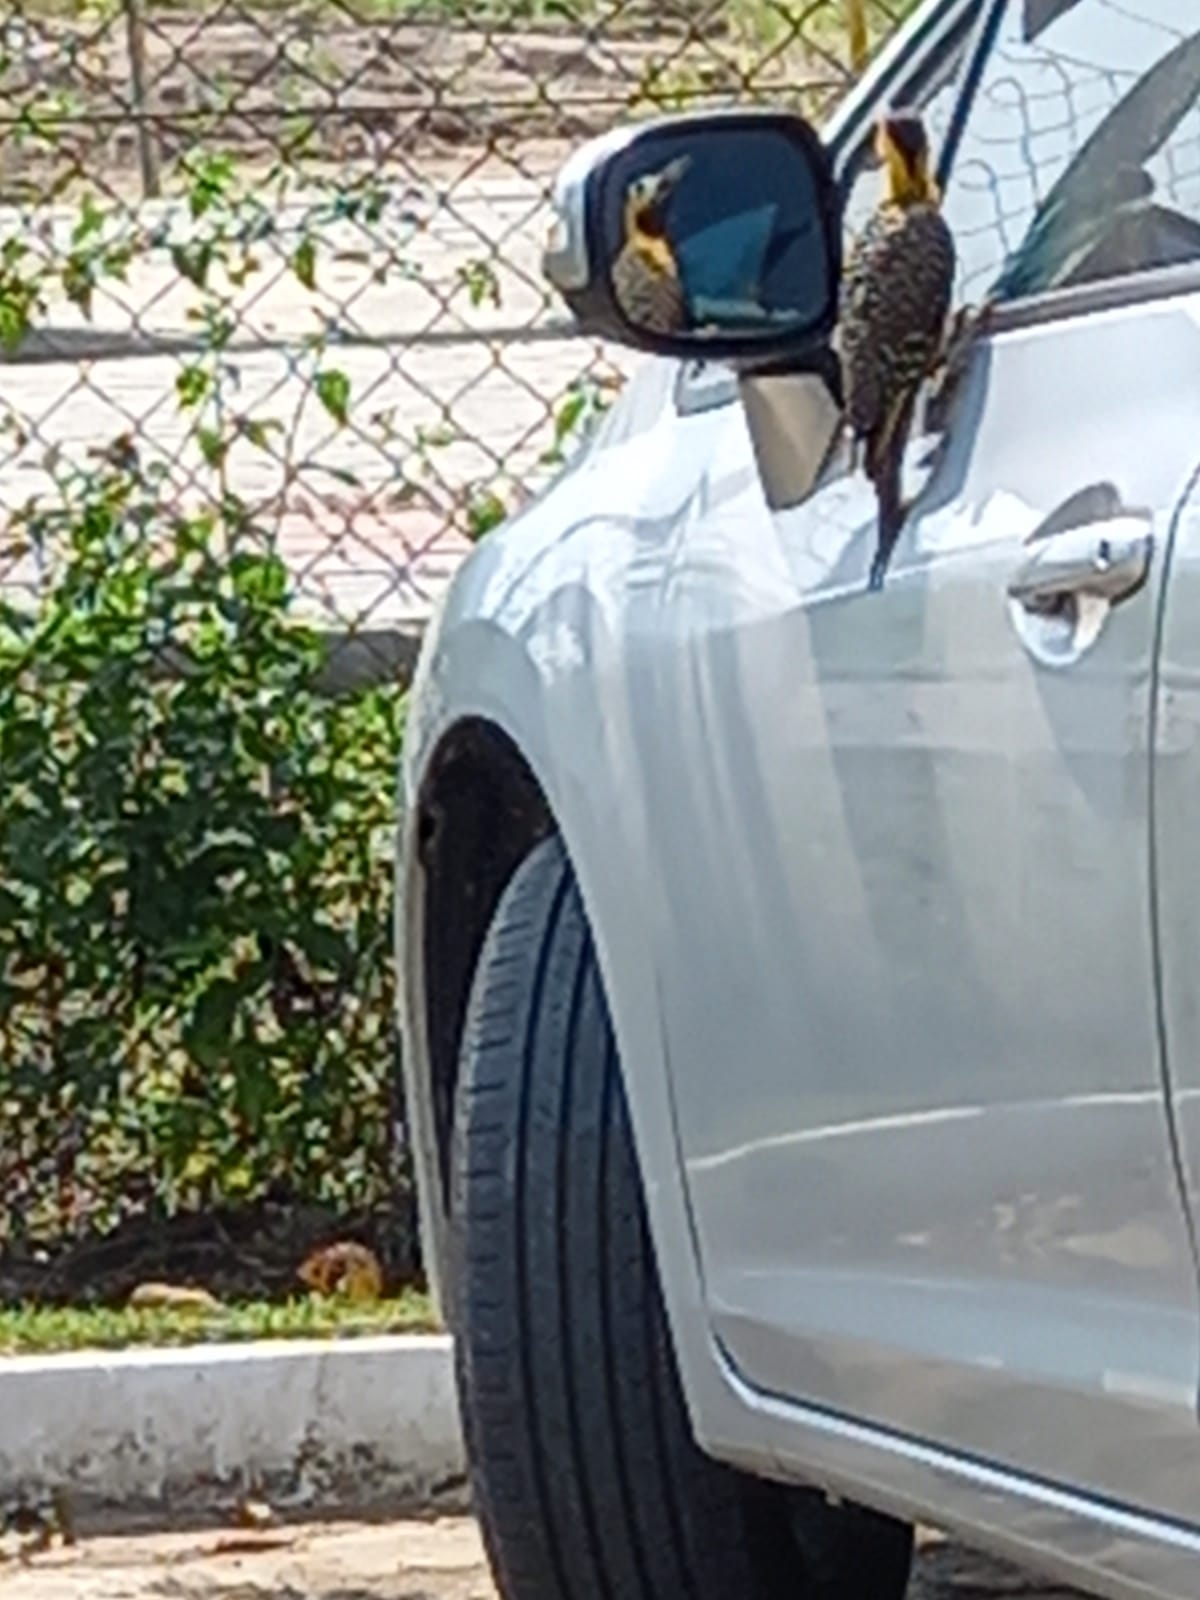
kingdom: Animalia
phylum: Chordata
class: Aves
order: Piciformes
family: Picidae
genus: Colaptes
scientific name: Colaptes campestris
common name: Campo flicker
